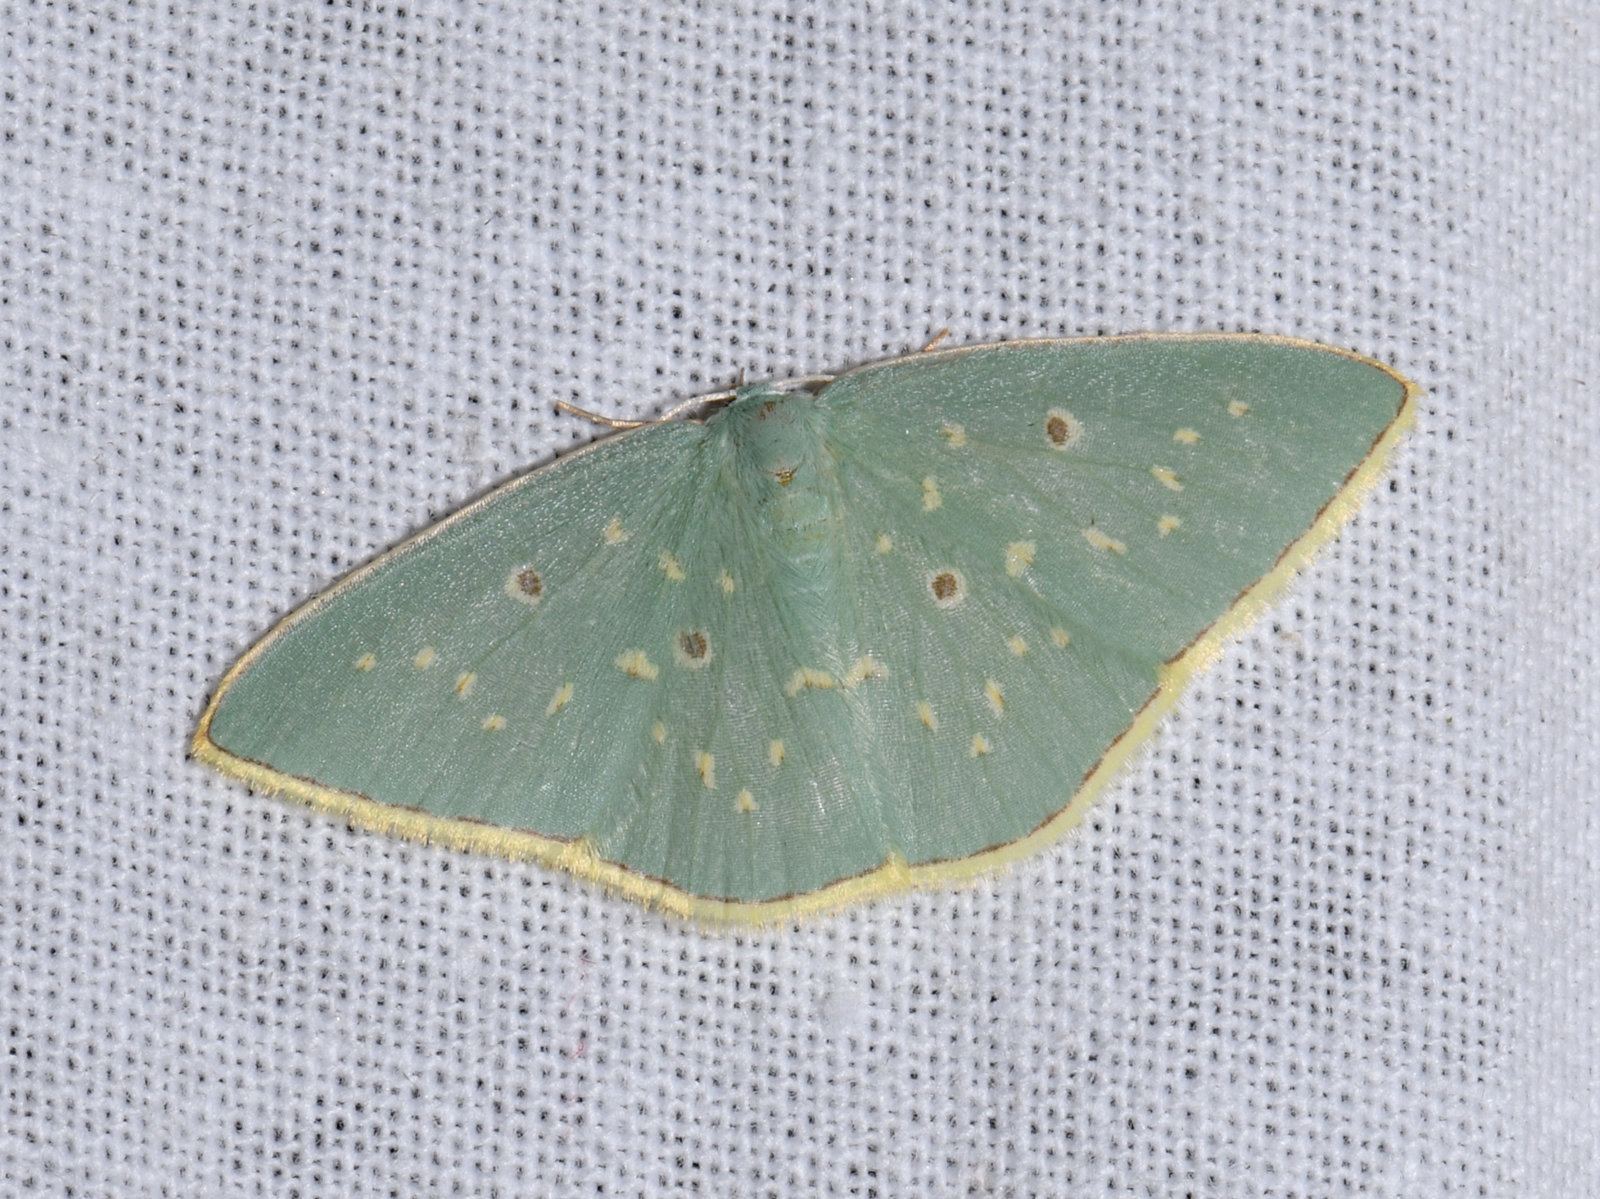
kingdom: Animalia
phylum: Arthropoda
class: Insecta
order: Lepidoptera
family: Geometridae
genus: Comostola
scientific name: Comostola leucosticta
